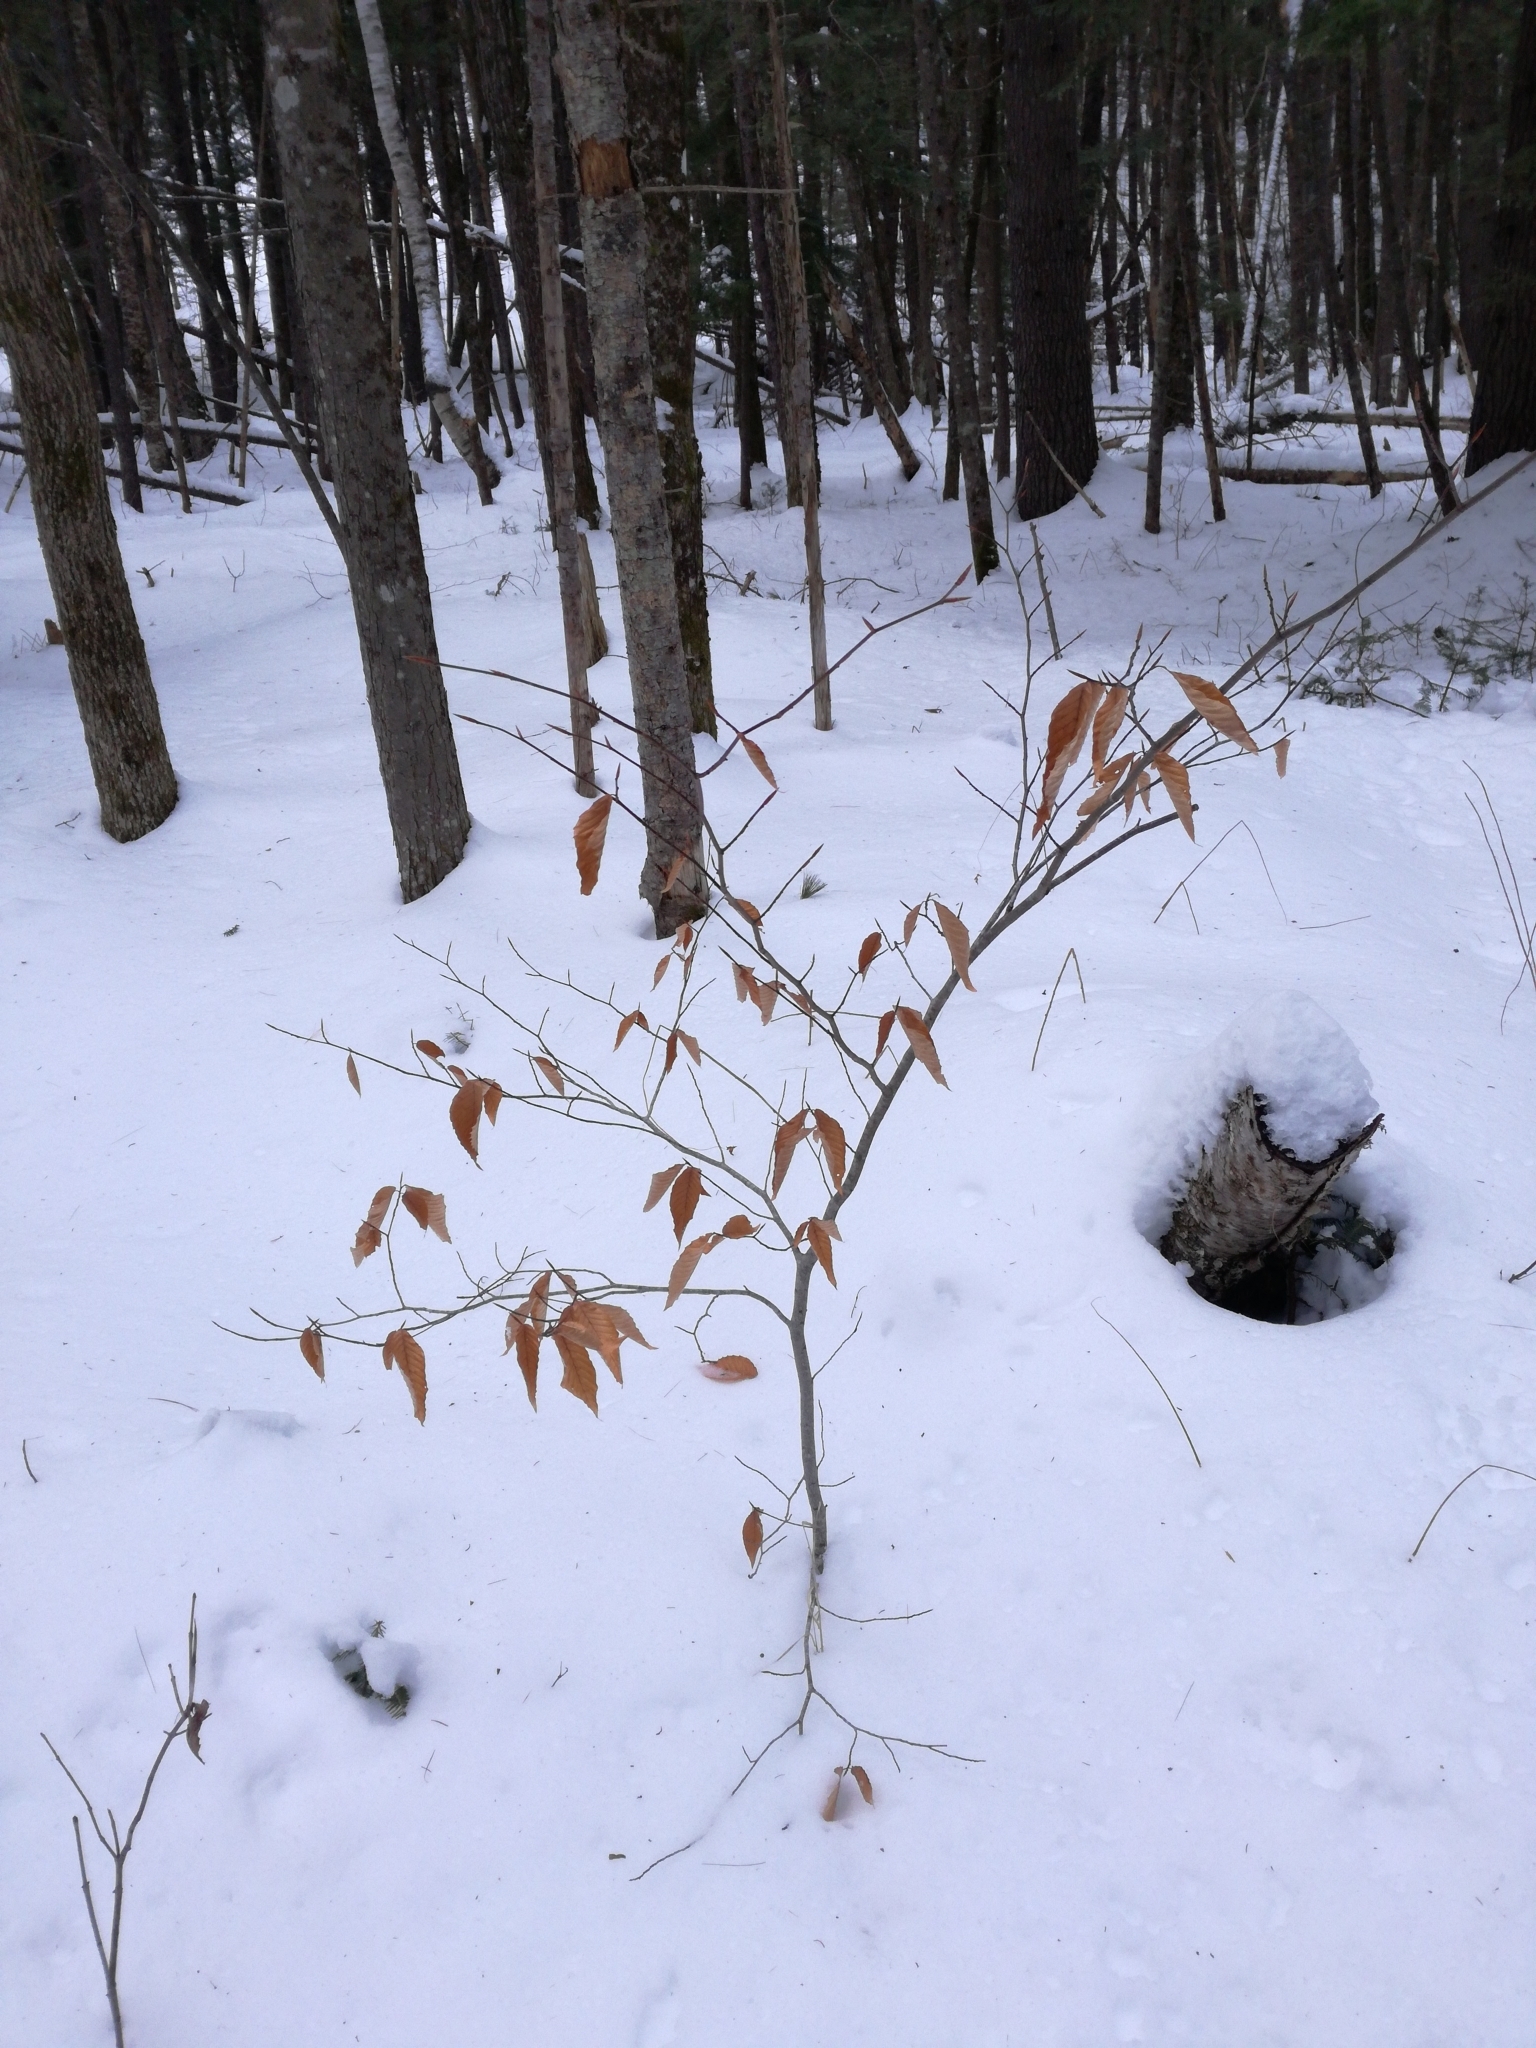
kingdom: Plantae
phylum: Tracheophyta
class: Magnoliopsida
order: Fagales
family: Fagaceae
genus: Fagus
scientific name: Fagus grandifolia
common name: American beech
